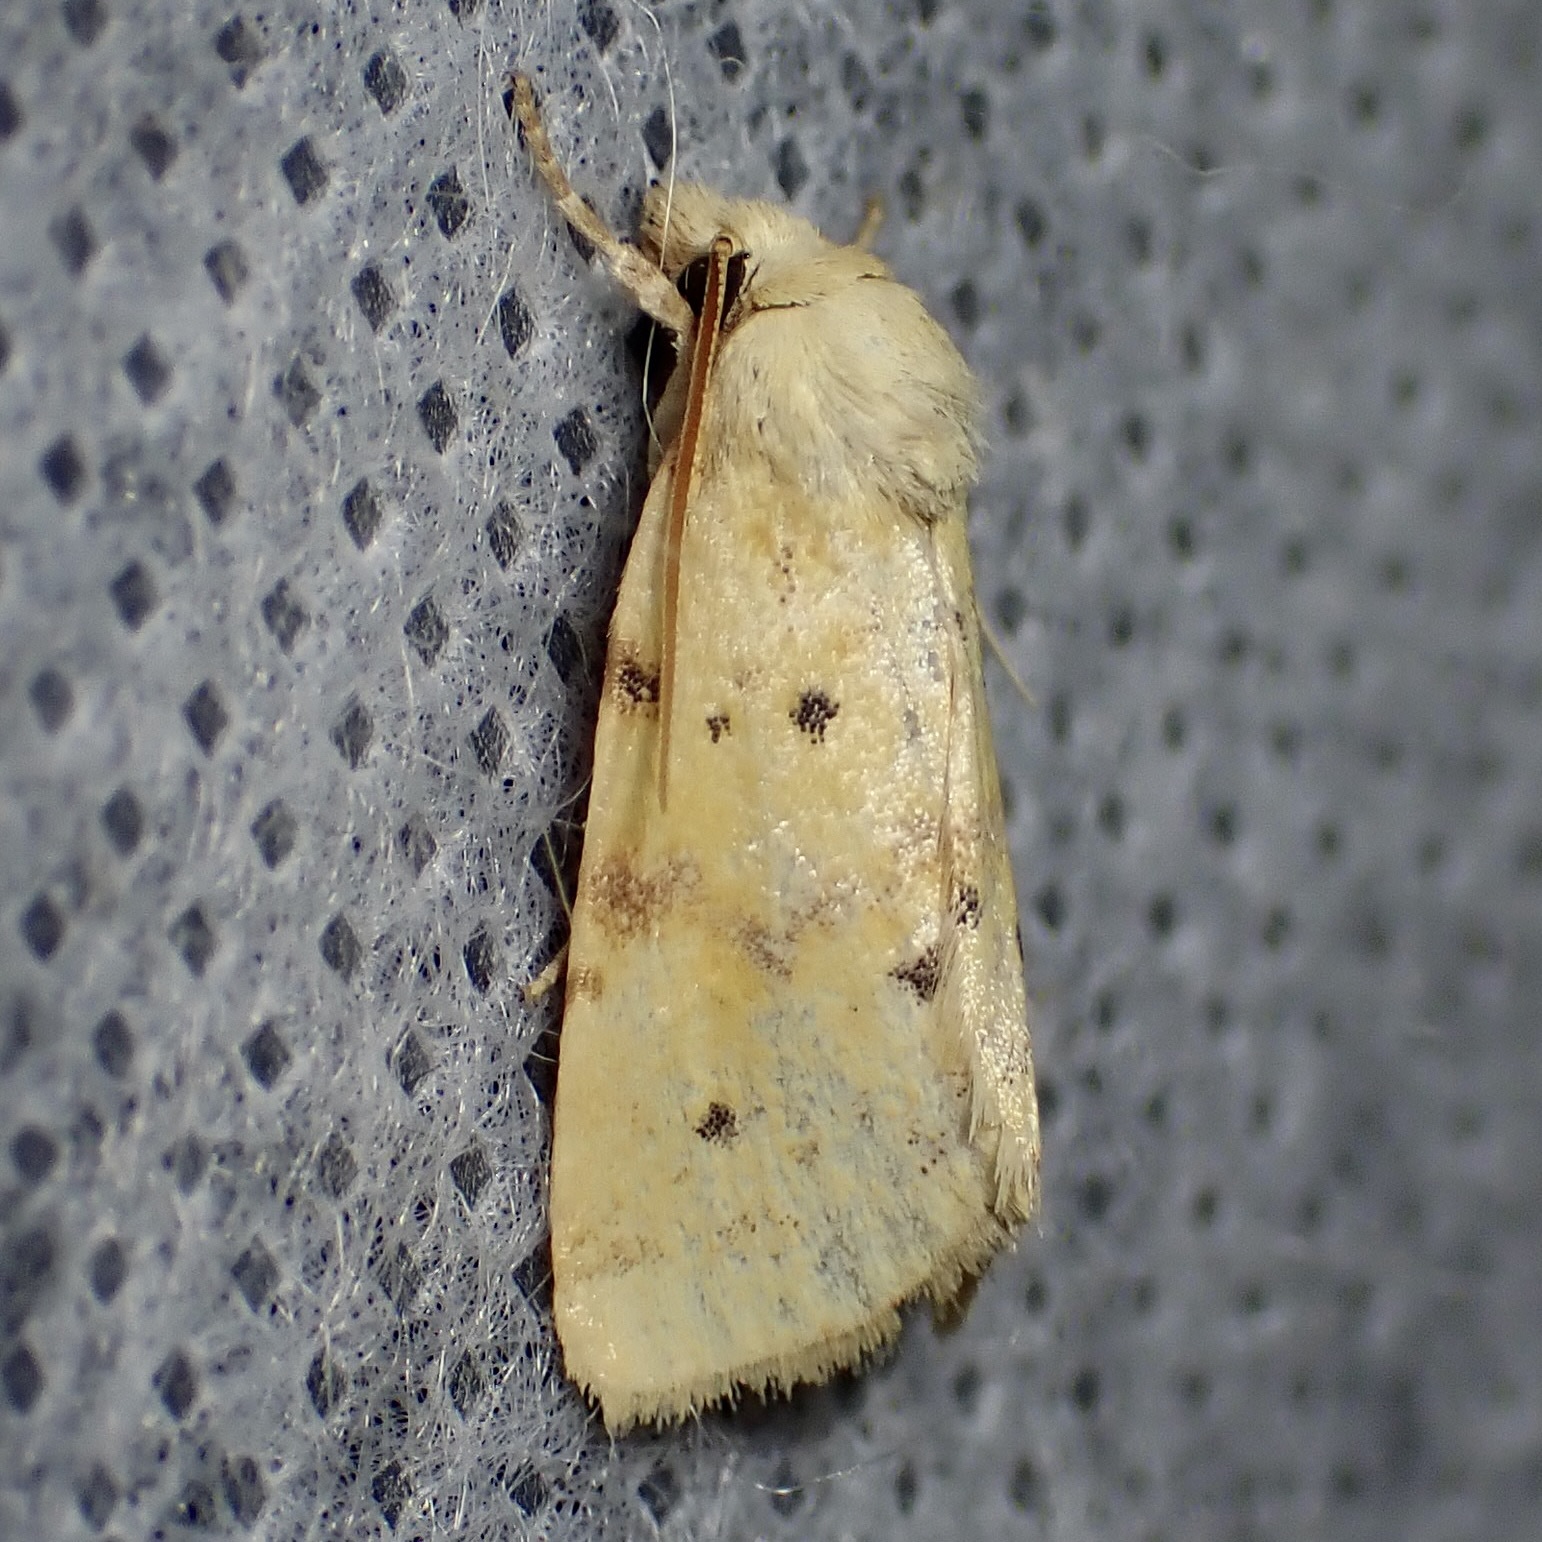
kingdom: Animalia
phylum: Arthropoda
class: Insecta
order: Lepidoptera
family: Noctuidae
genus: Azenia
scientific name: Azenia implora
